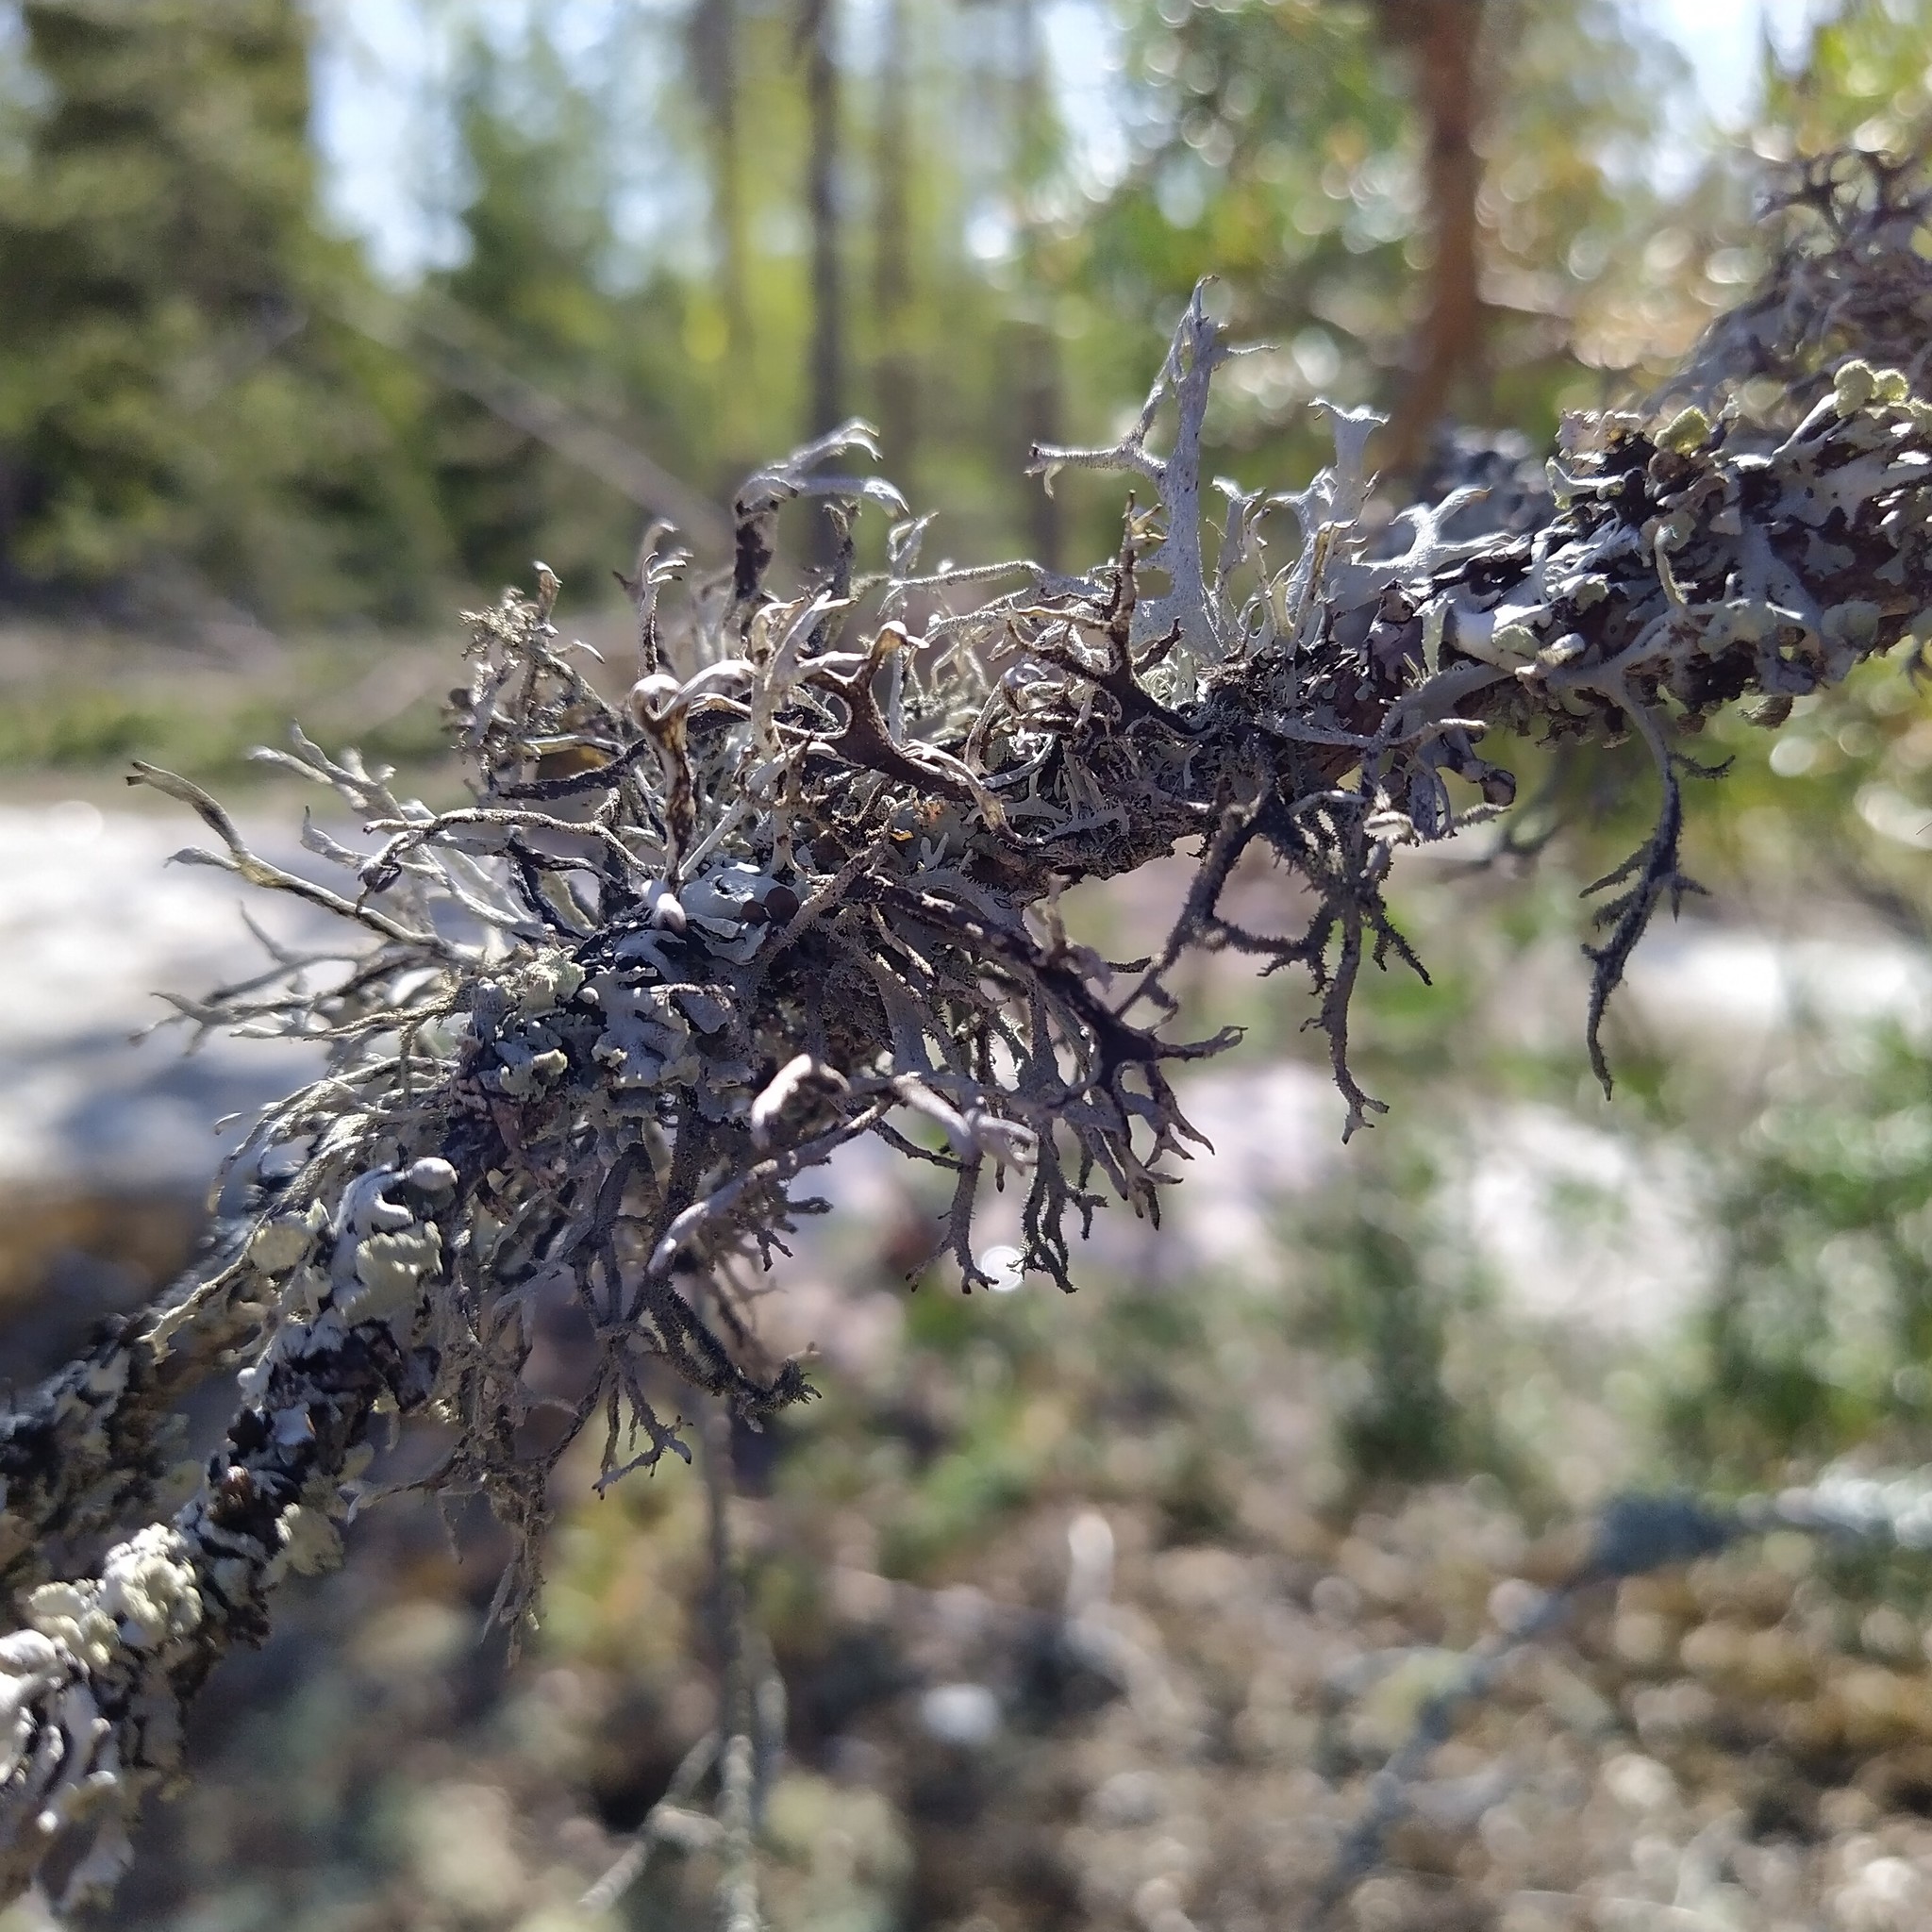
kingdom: Fungi
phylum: Ascomycota
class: Lecanoromycetes
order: Lecanorales
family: Parmeliaceae
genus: Pseudevernia
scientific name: Pseudevernia furfuracea
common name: Tree moss
